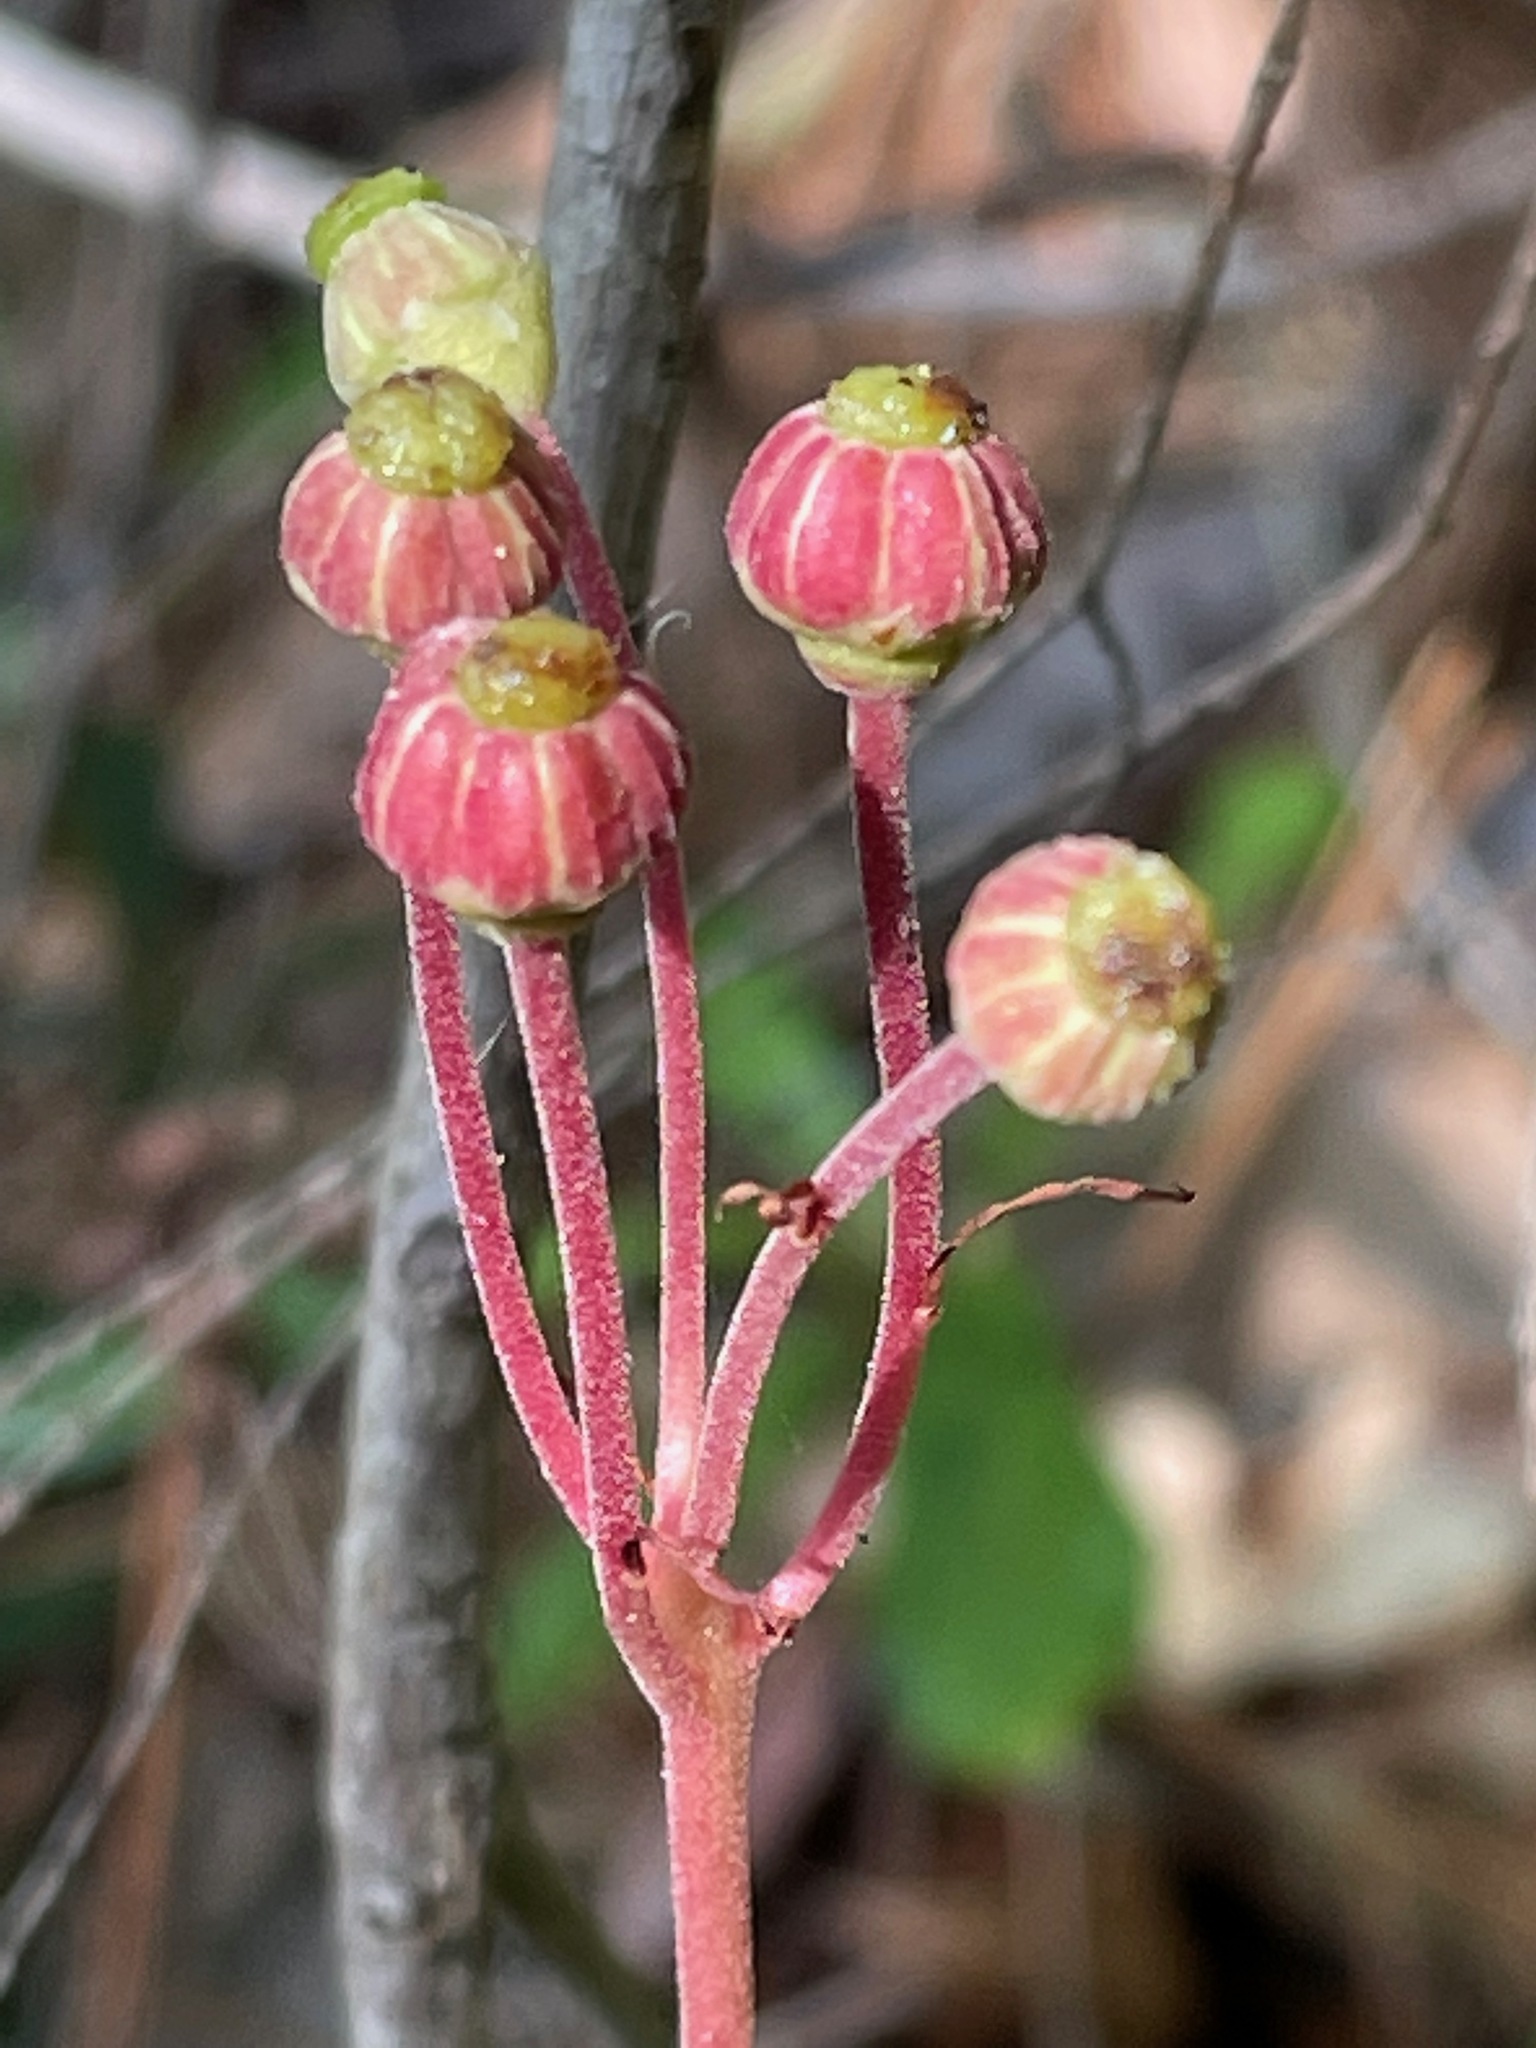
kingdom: Plantae
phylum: Tracheophyta
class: Magnoliopsida
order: Ericales
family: Ericaceae
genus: Chimaphila
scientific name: Chimaphila umbellata
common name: Pipsissewa
